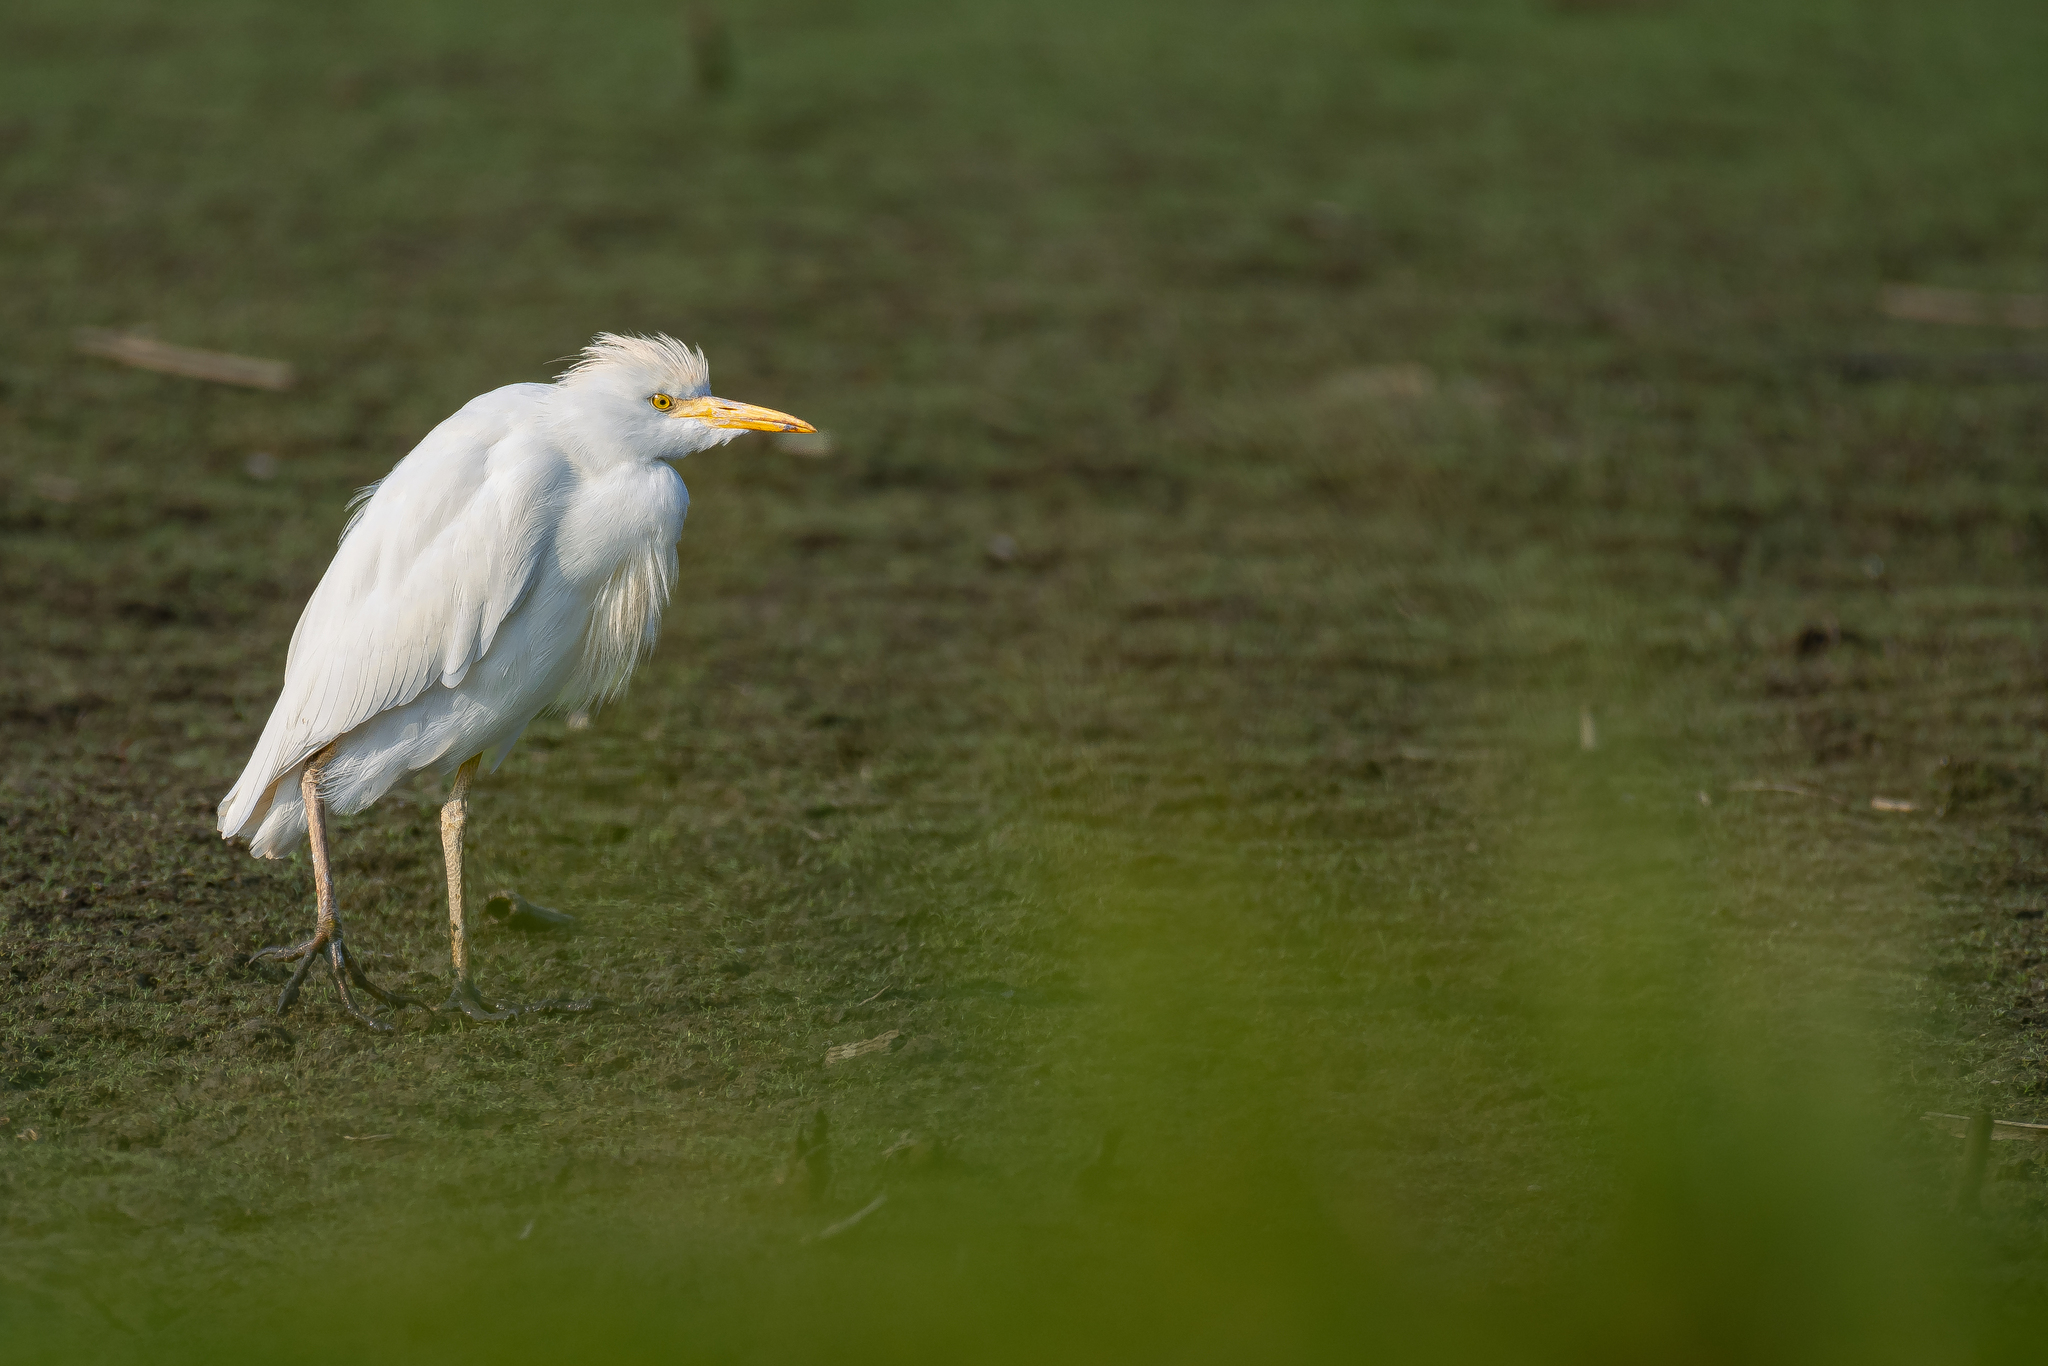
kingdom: Animalia
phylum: Chordata
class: Aves
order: Pelecaniformes
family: Ardeidae
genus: Bubulcus
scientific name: Bubulcus ibis
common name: Cattle egret
